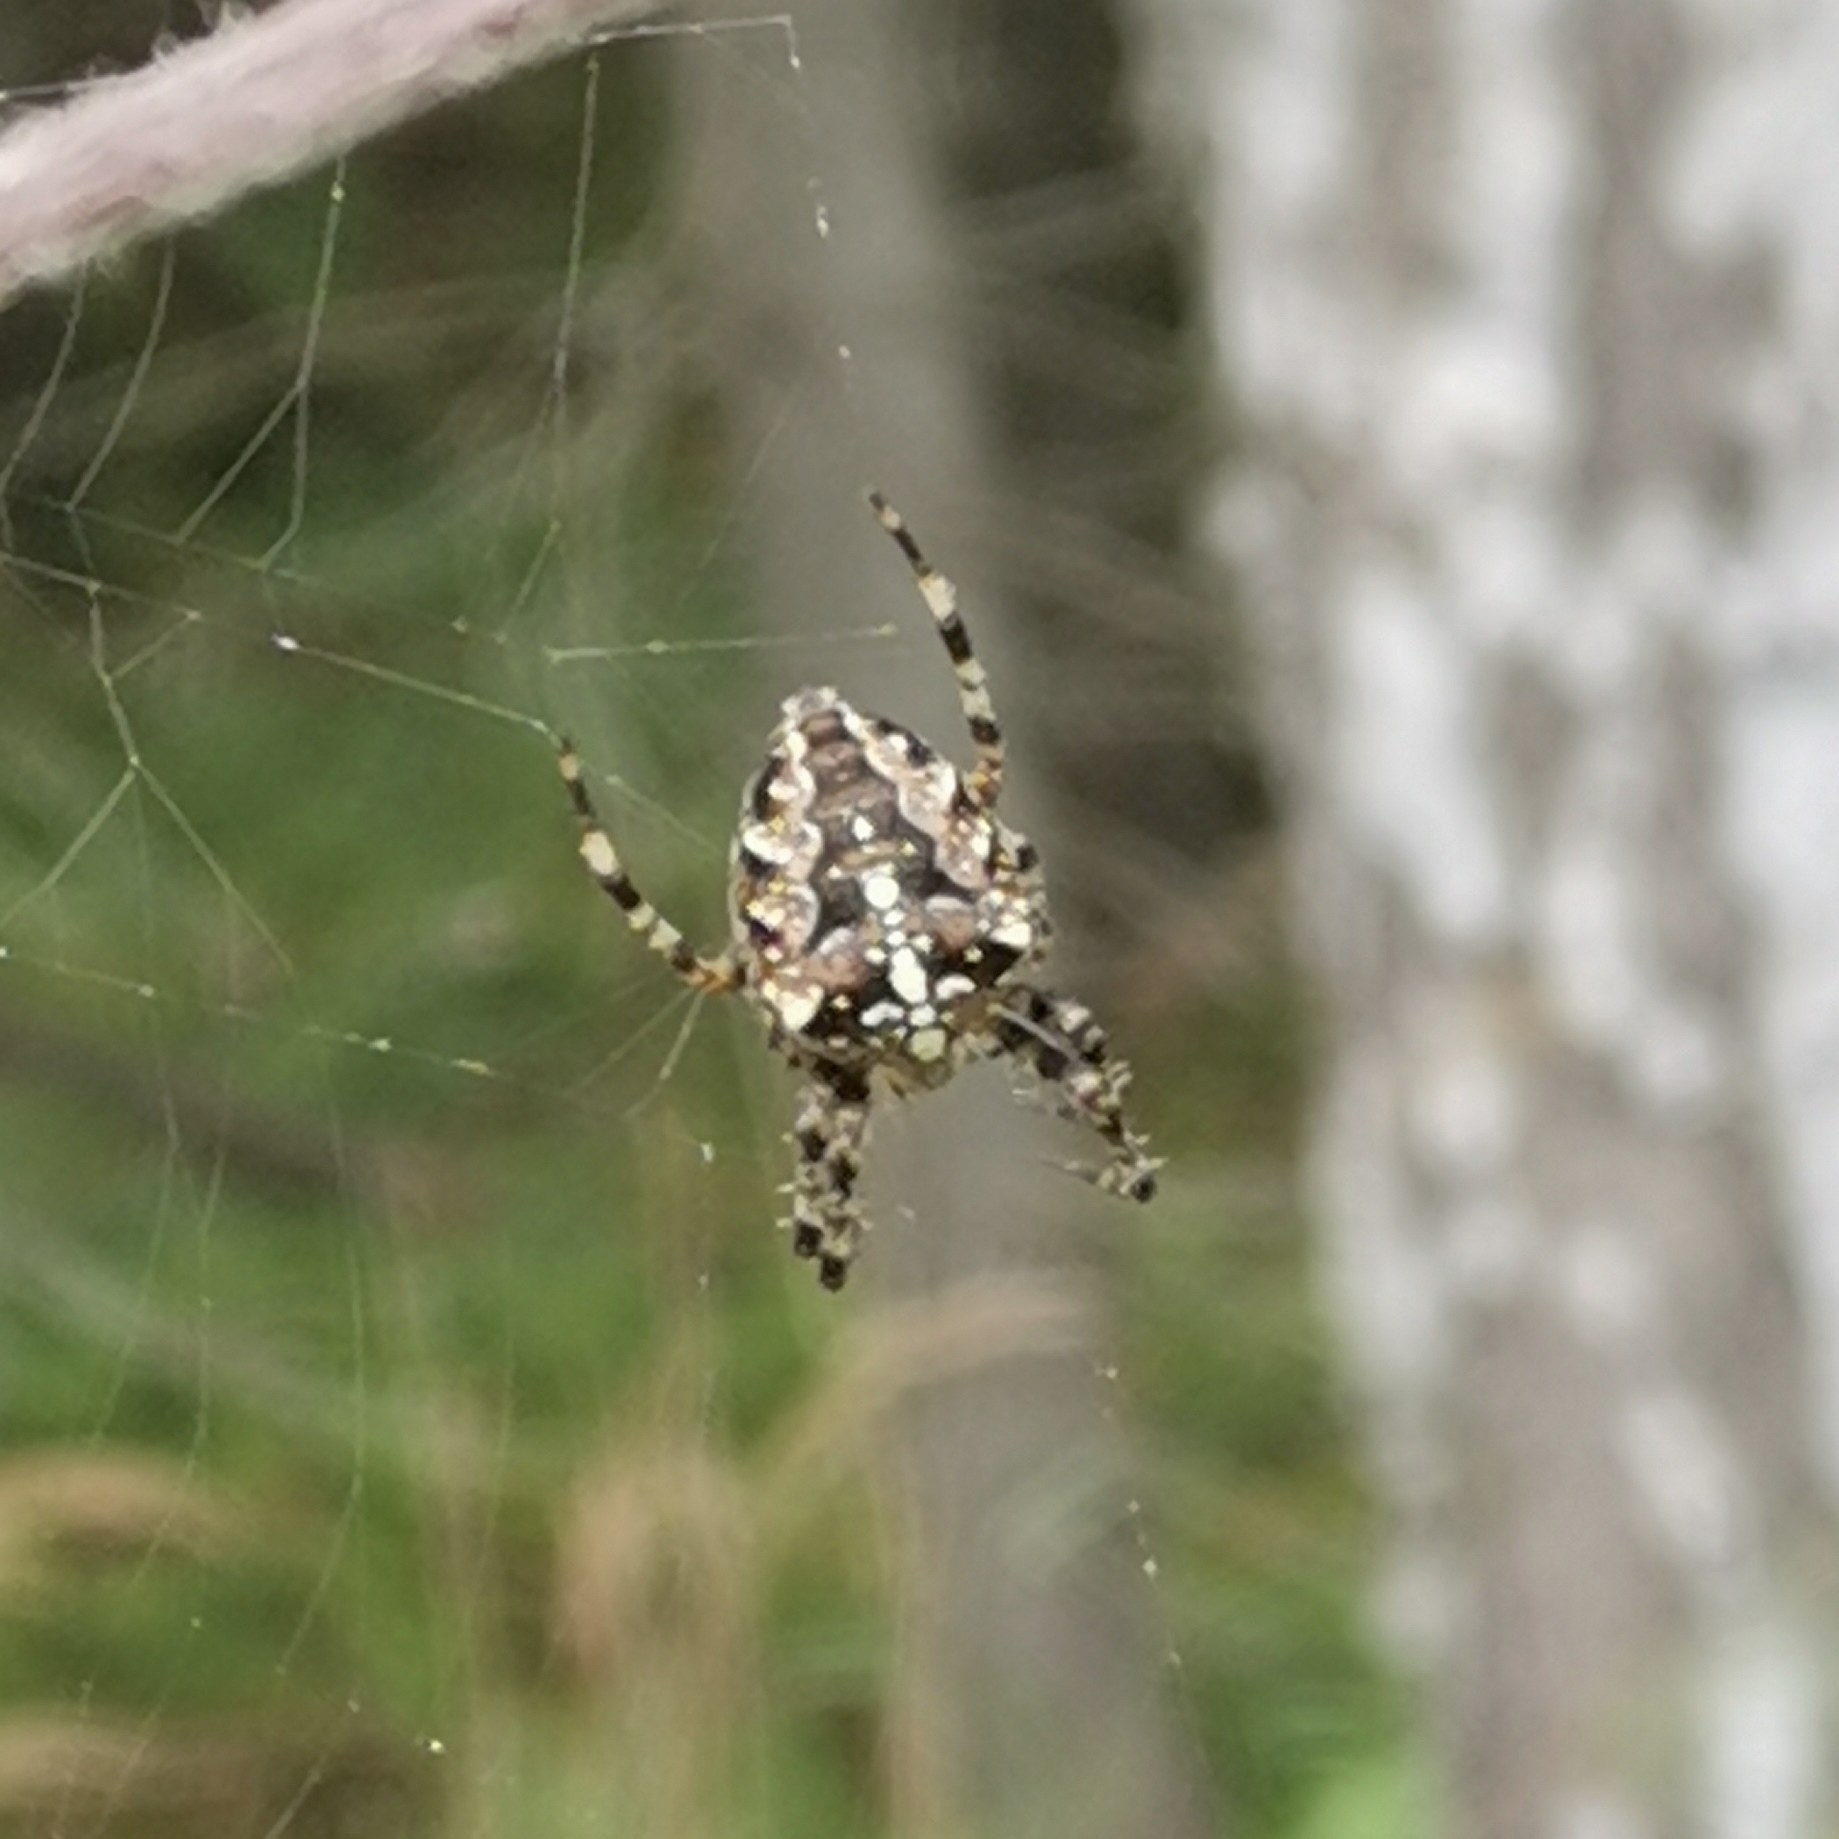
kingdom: Animalia
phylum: Arthropoda
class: Arachnida
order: Araneae
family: Araneidae
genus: Araneus
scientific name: Araneus diadematus
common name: Cross orbweaver
